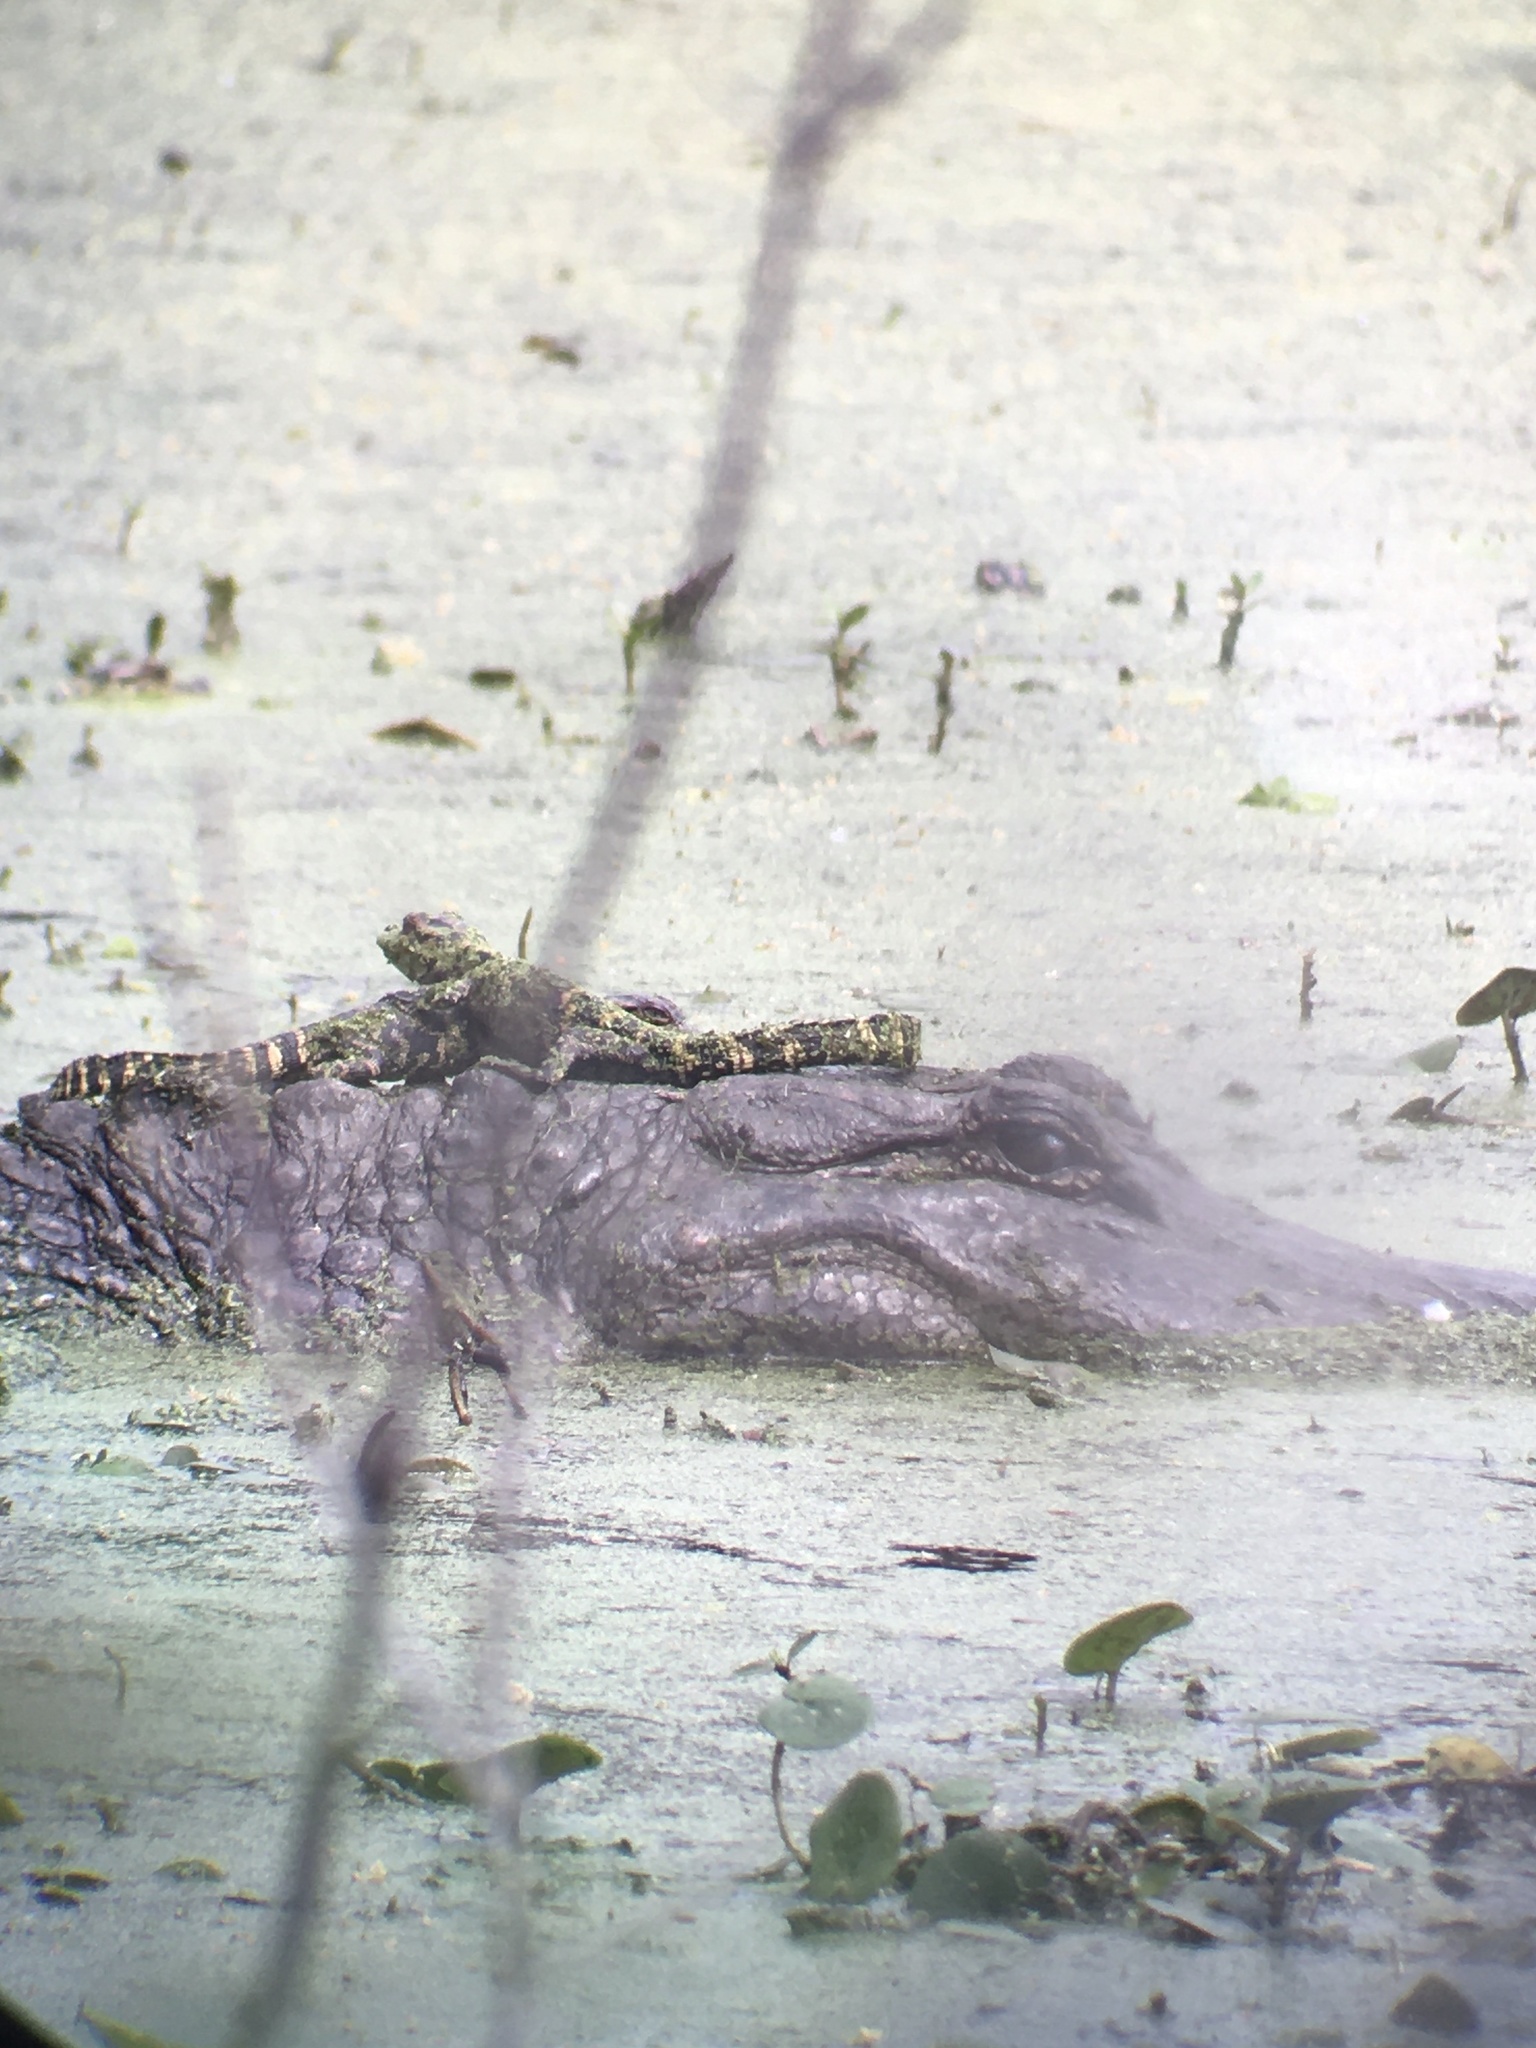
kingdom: Animalia
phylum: Chordata
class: Crocodylia
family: Alligatoridae
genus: Alligator
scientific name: Alligator mississippiensis
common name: American alligator
